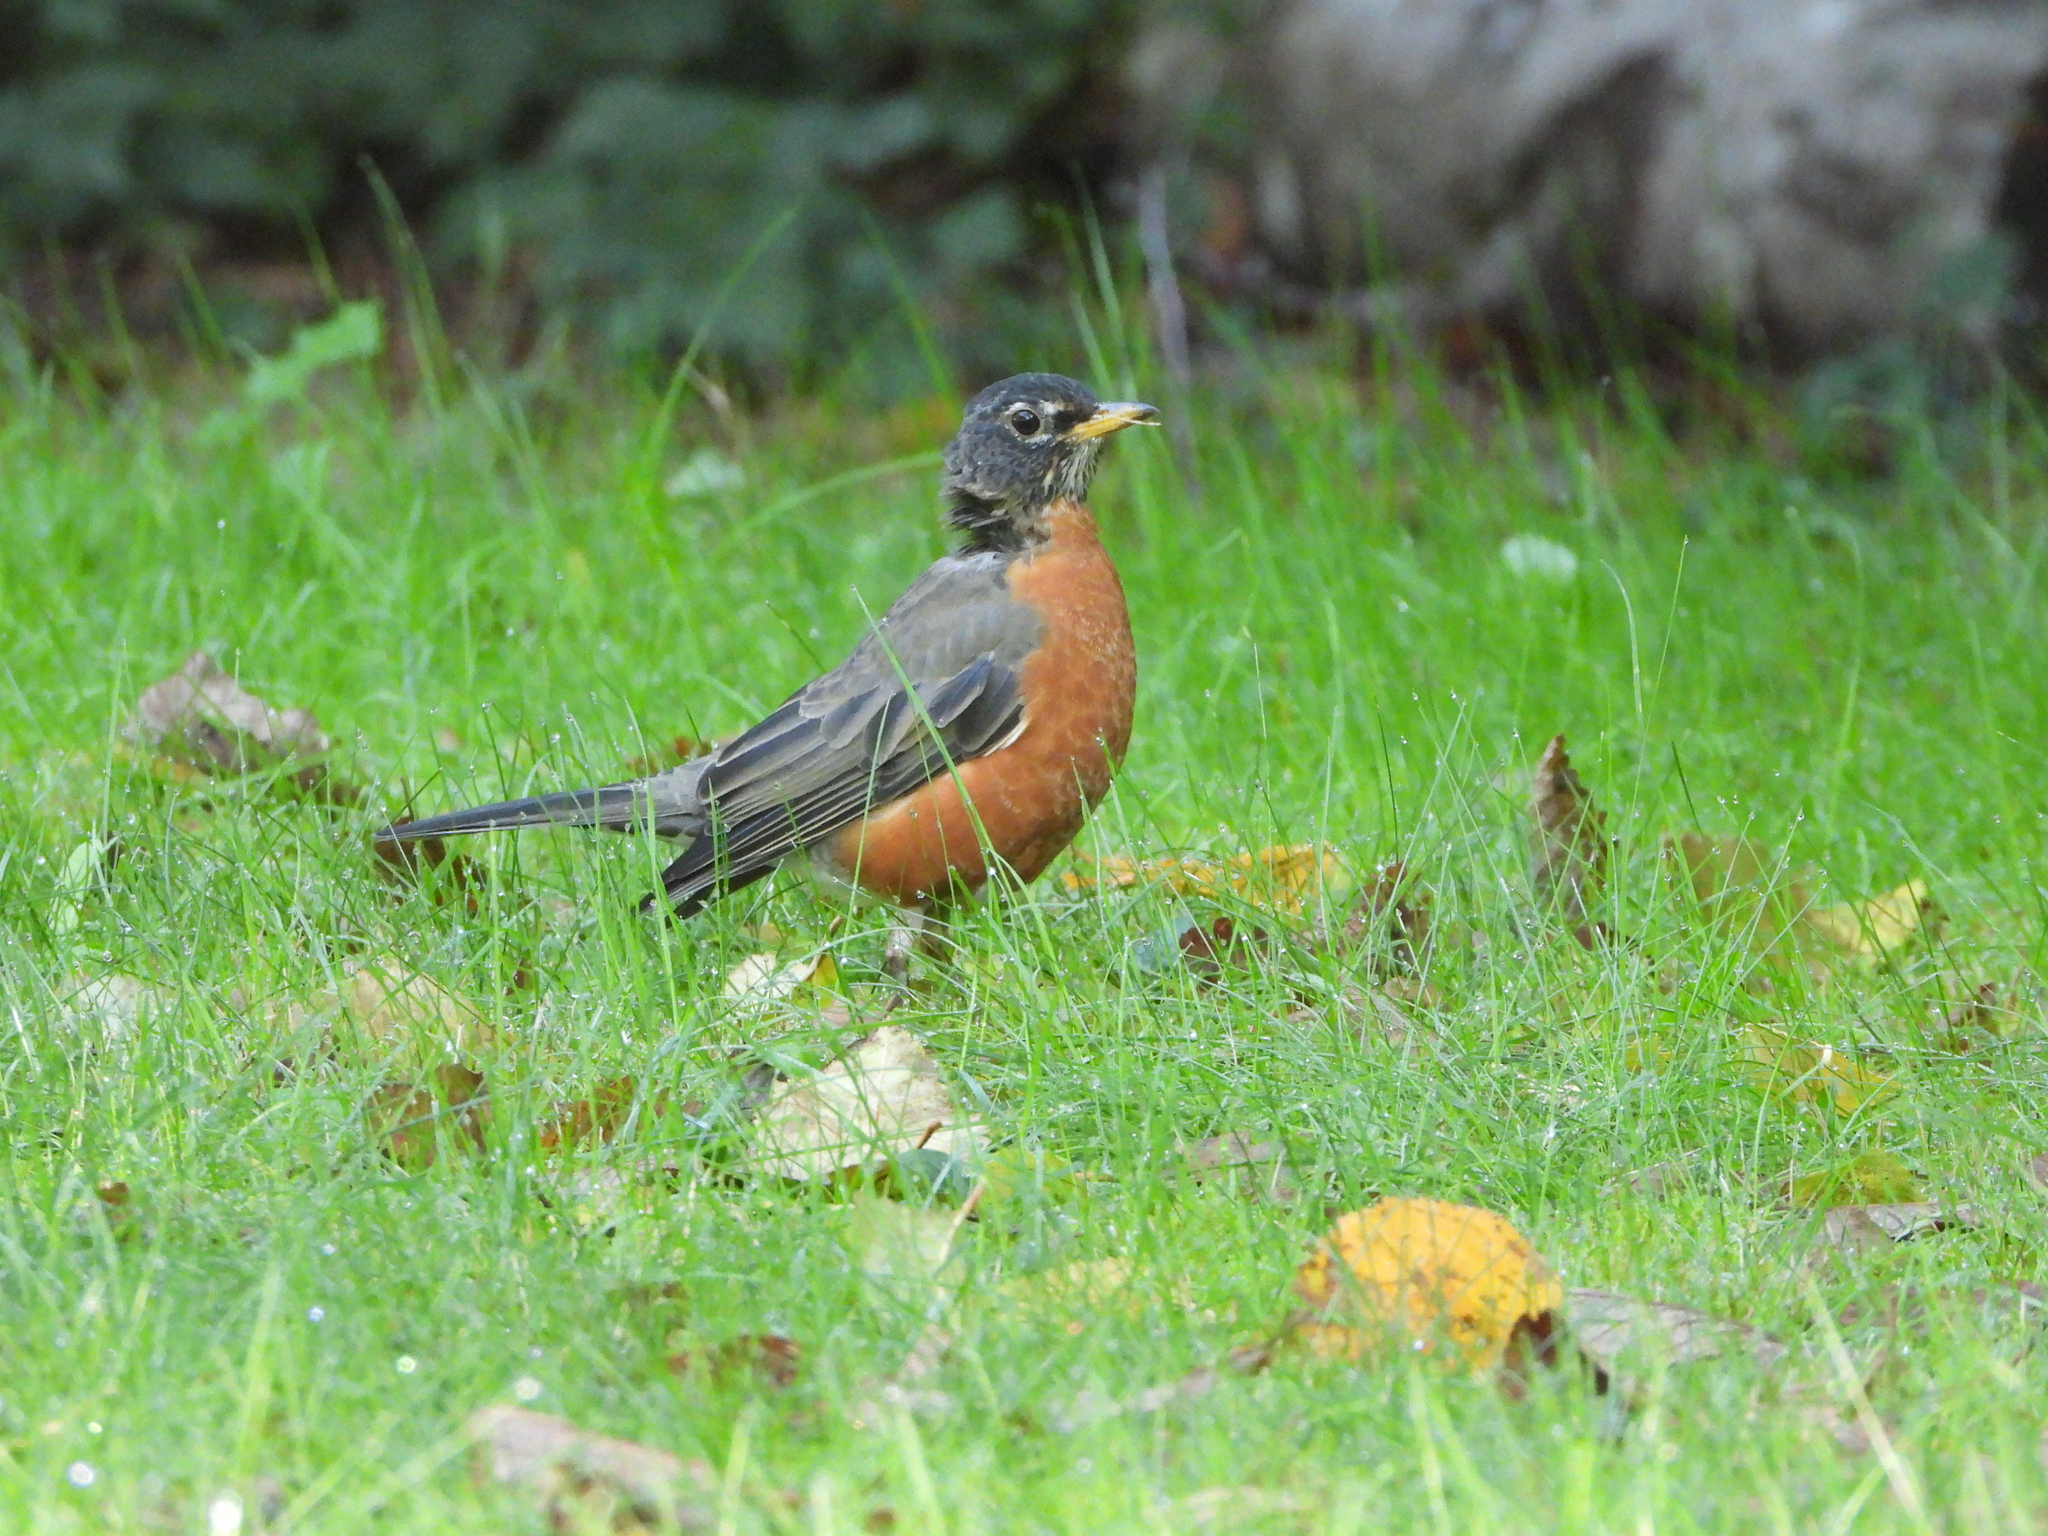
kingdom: Animalia
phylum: Chordata
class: Aves
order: Passeriformes
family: Turdidae
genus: Turdus
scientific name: Turdus migratorius
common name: American robin
